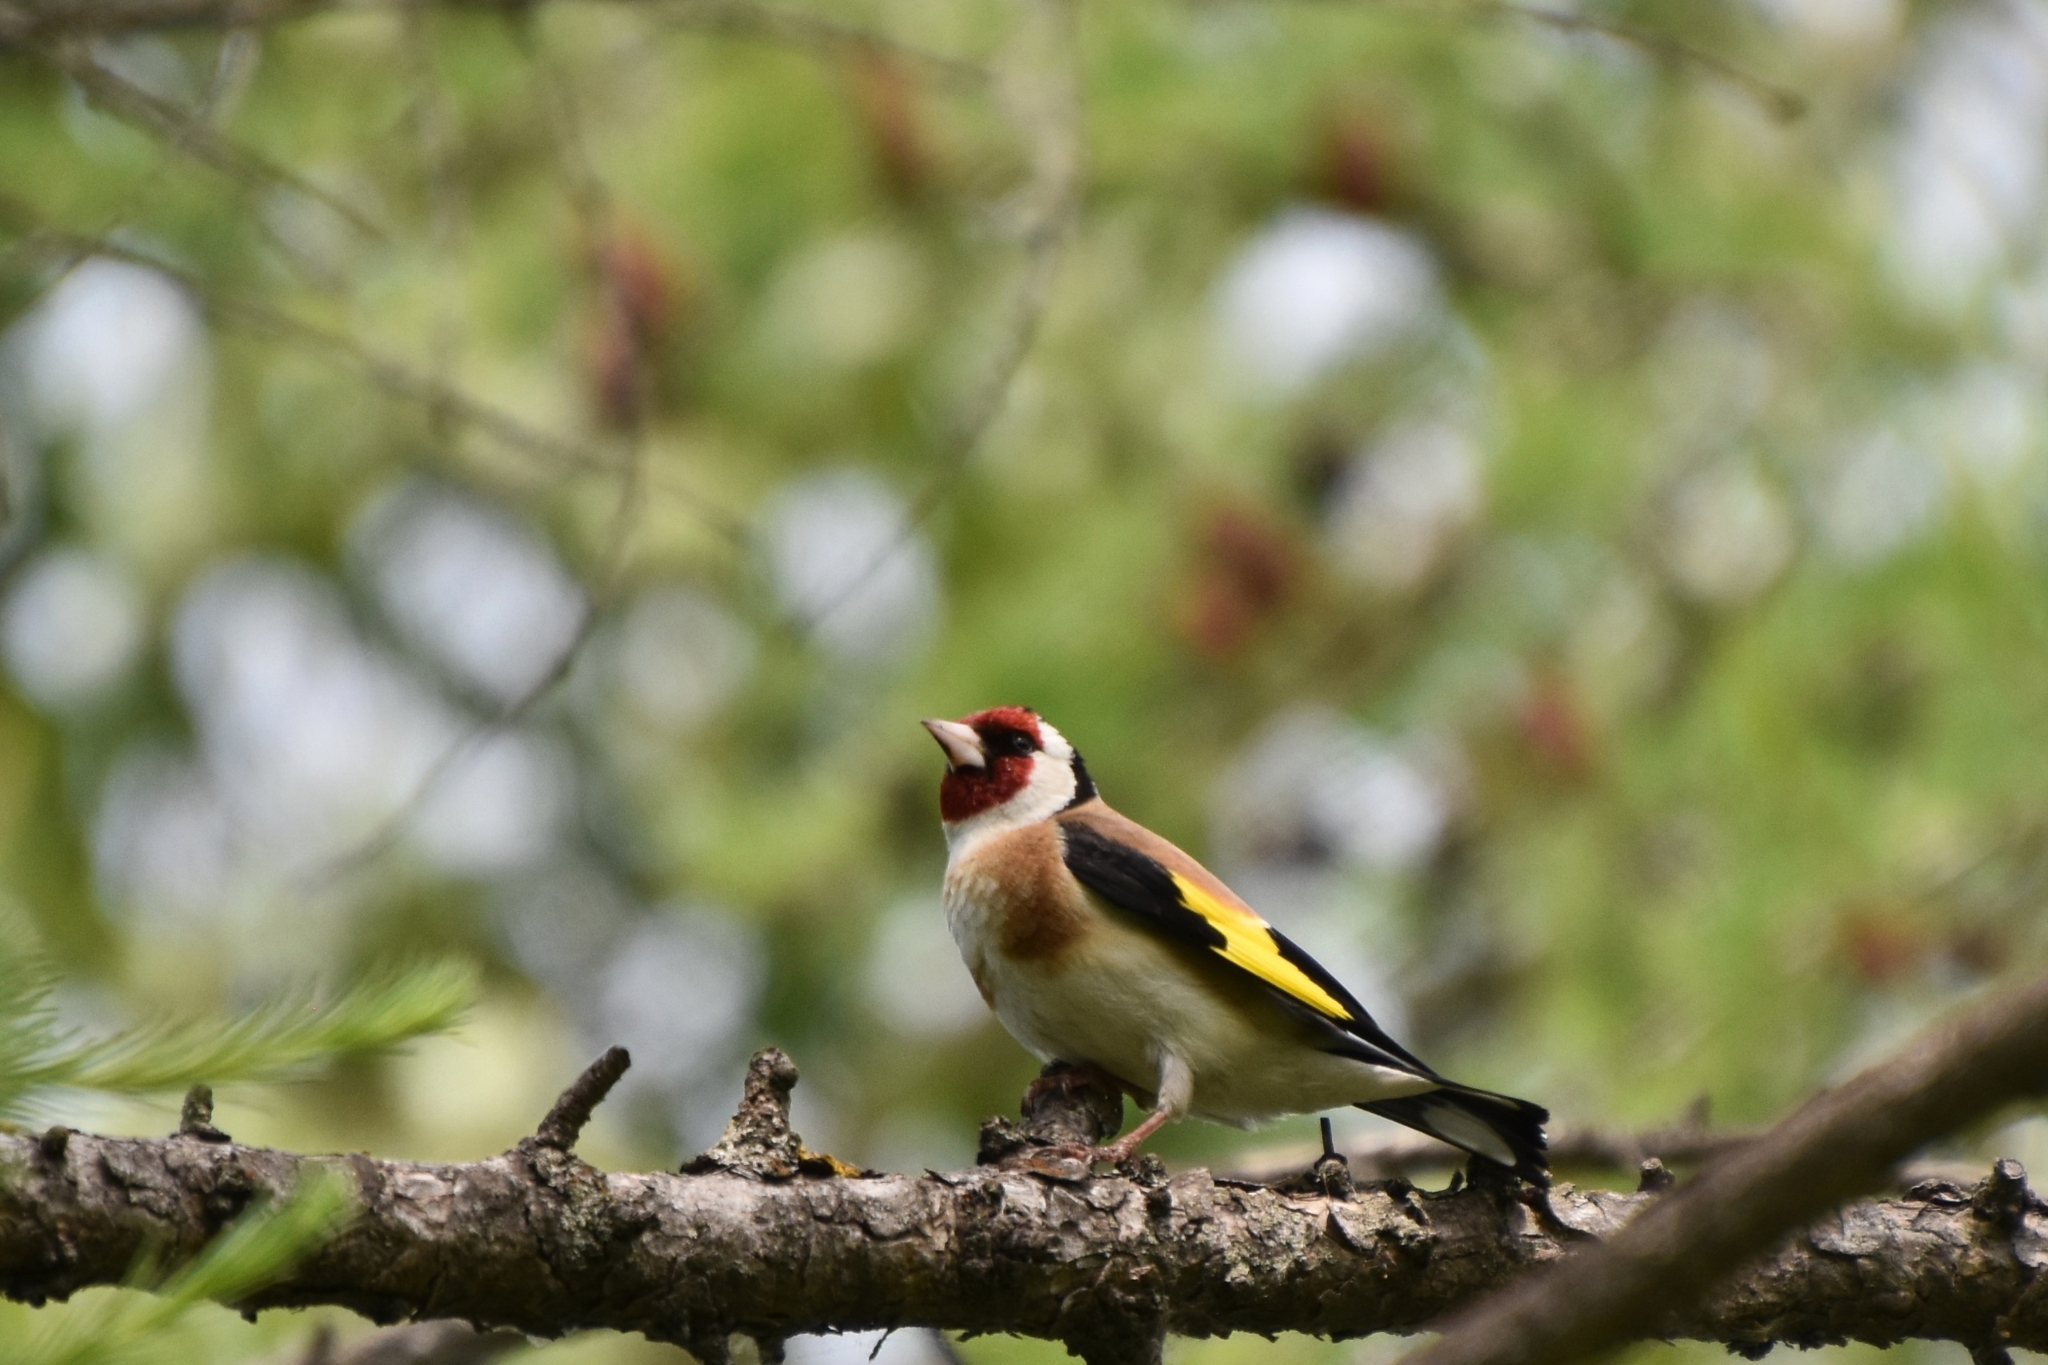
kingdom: Animalia
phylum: Chordata
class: Aves
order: Passeriformes
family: Fringillidae
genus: Carduelis
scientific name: Carduelis carduelis
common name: European goldfinch
